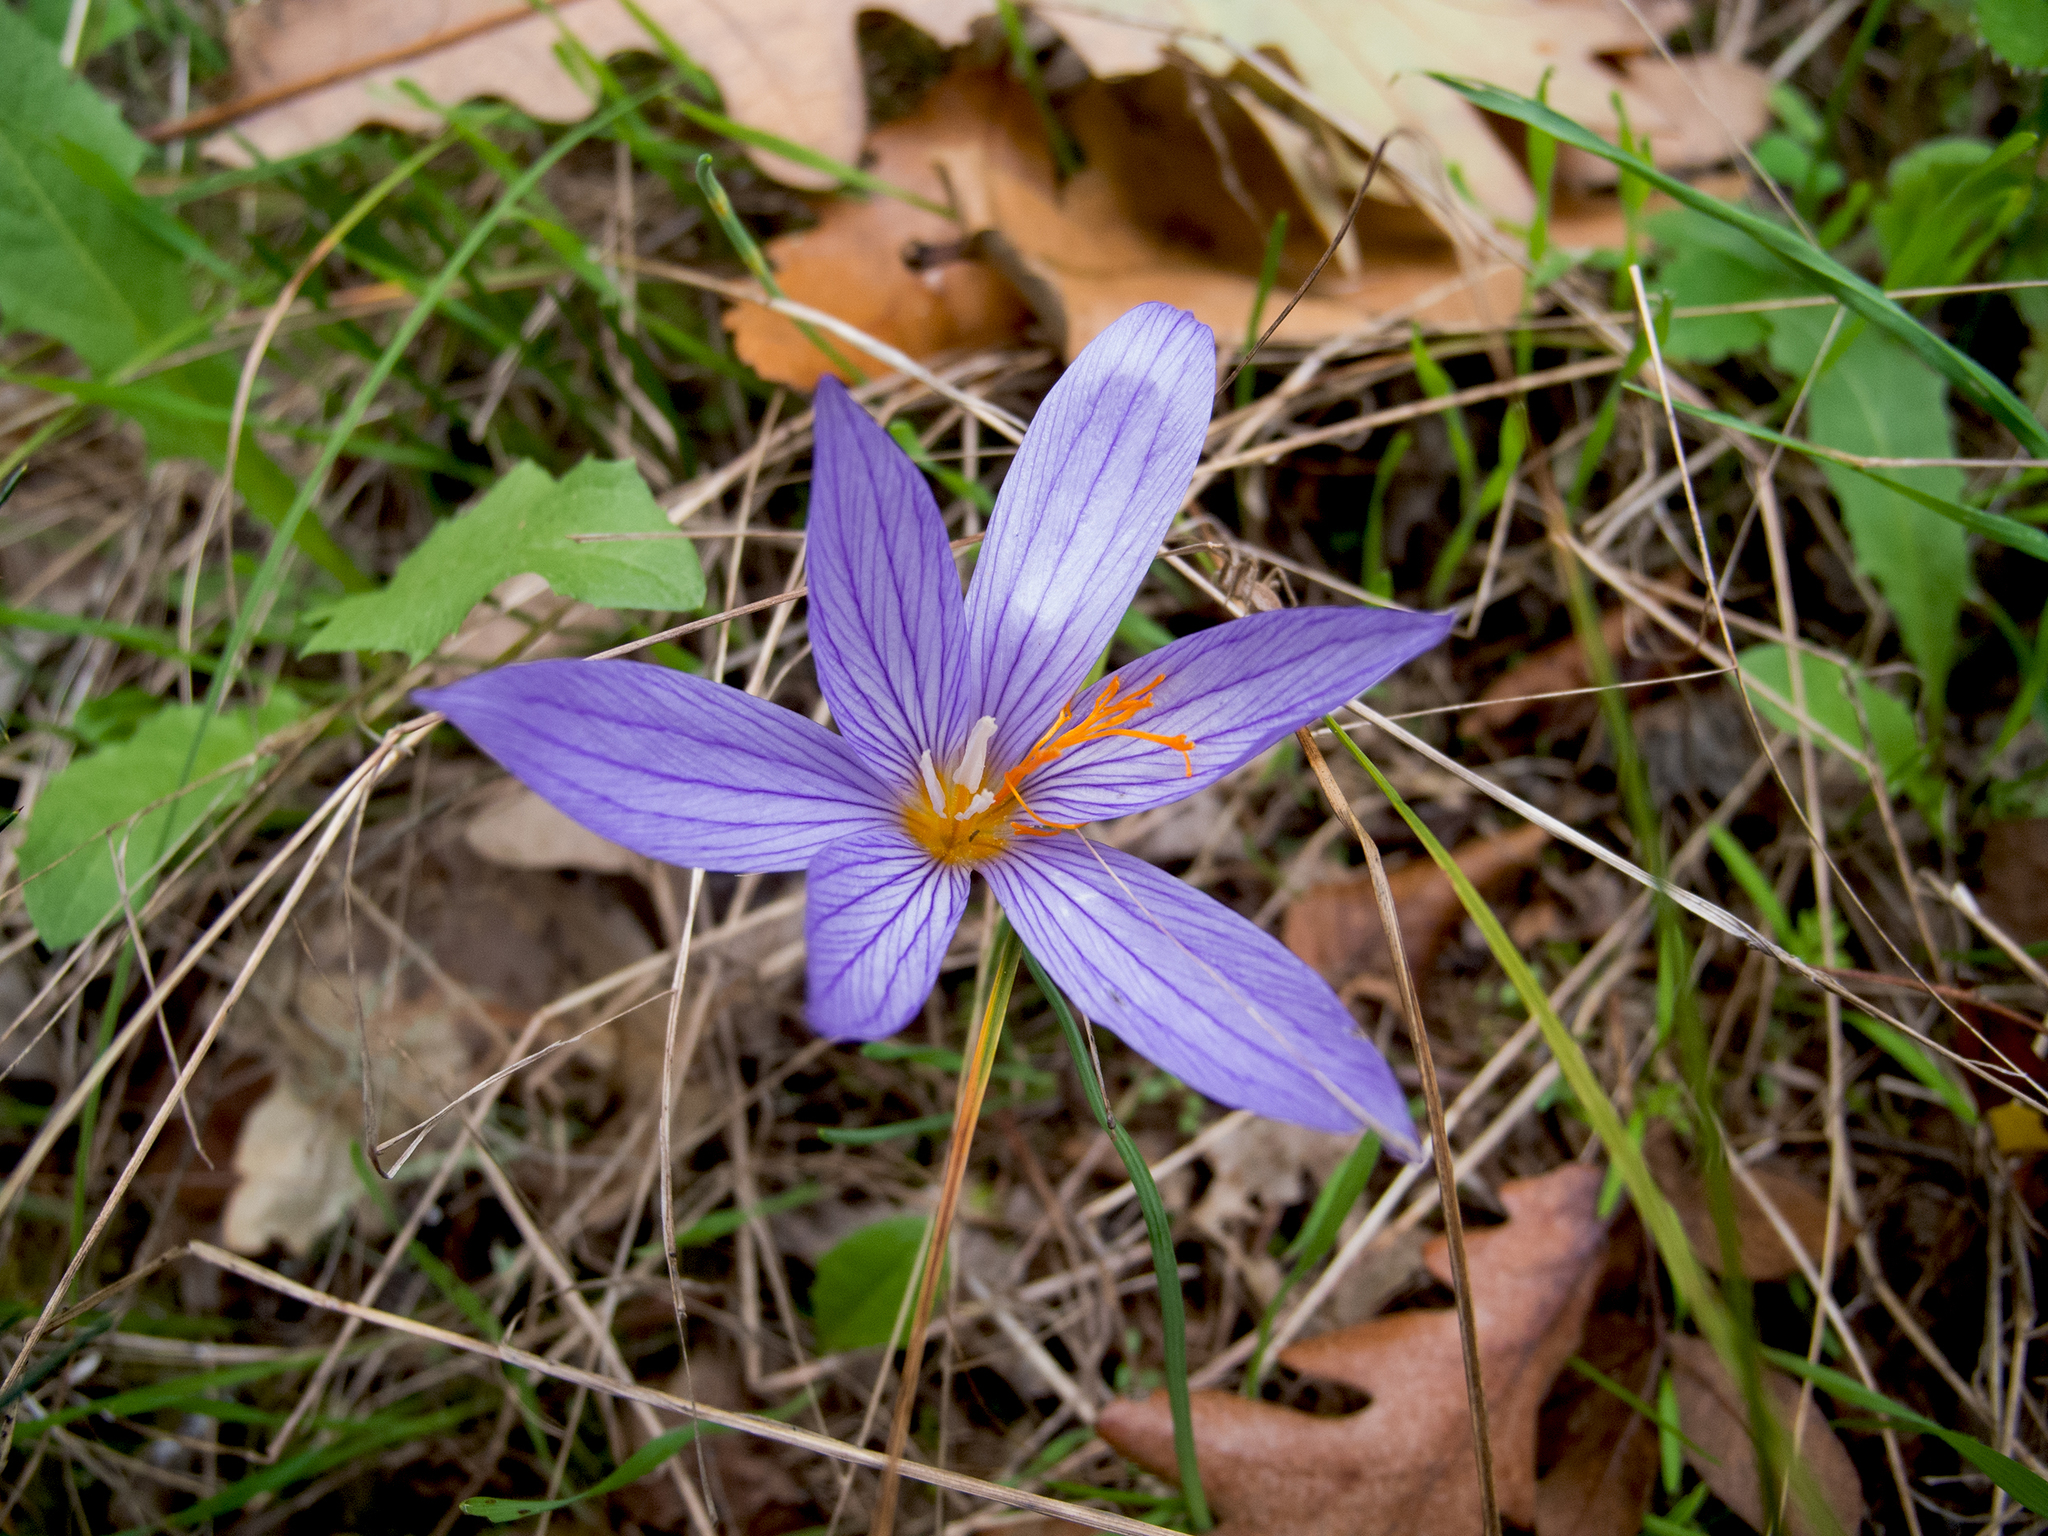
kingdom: Plantae
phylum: Tracheophyta
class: Liliopsida
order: Asparagales
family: Iridaceae
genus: Crocus
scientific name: Crocus ibrahimii
